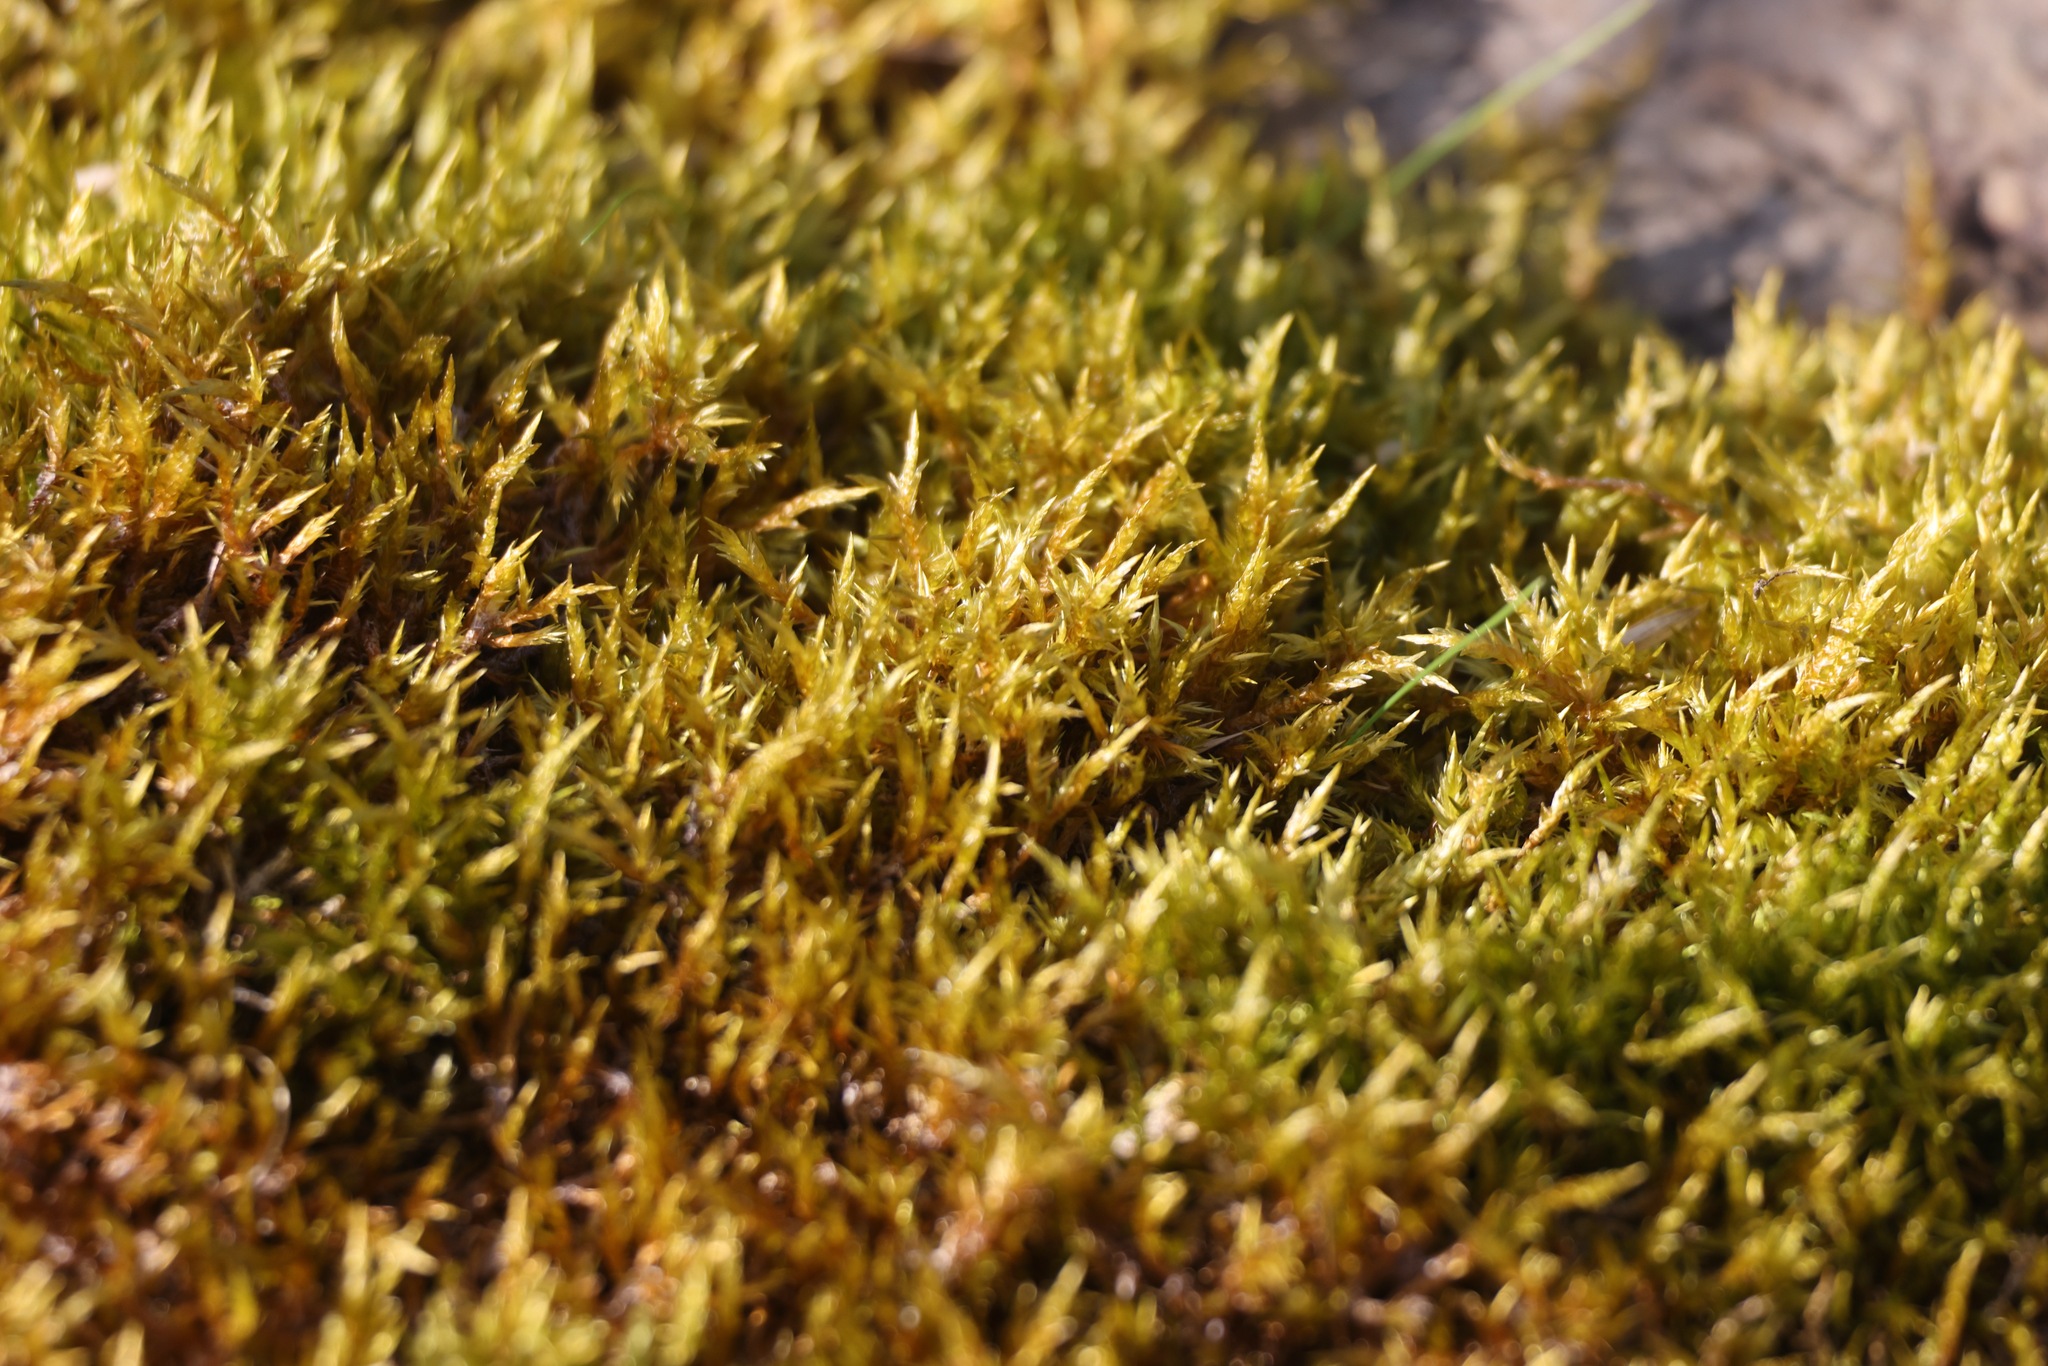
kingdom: Plantae
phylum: Bryophyta
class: Bryopsida
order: Hypnales
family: Pylaisiaceae
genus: Calliergonella
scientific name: Calliergonella cuspidata
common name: Common large wetland moss
